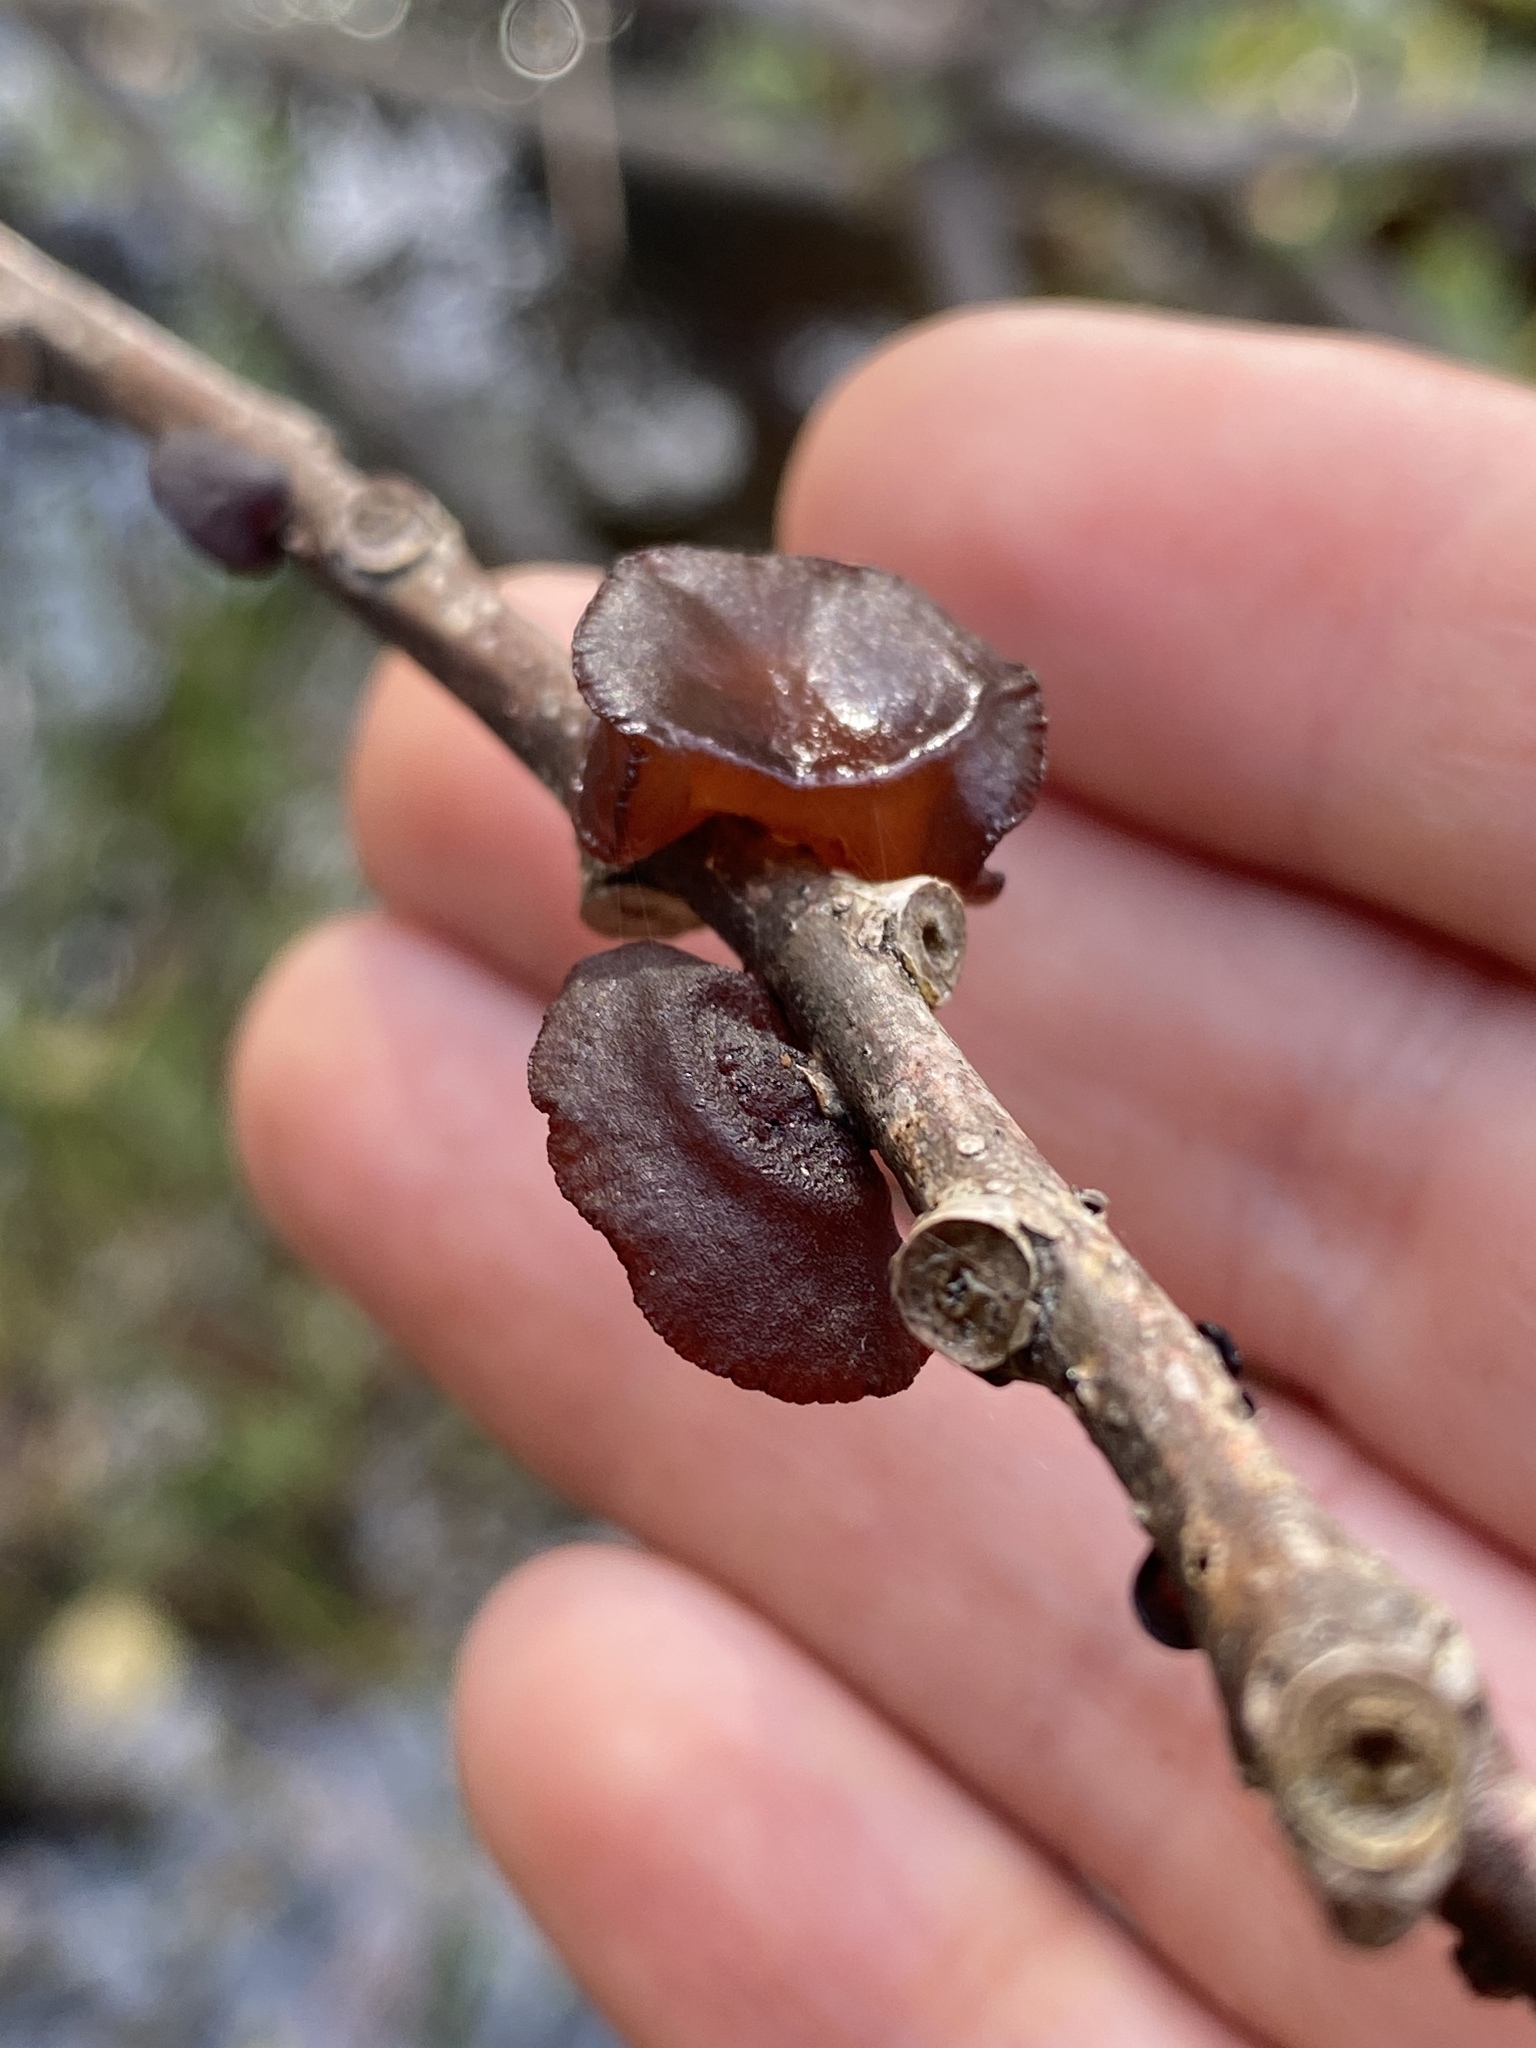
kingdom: Fungi
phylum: Basidiomycota
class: Agaricomycetes
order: Auriculariales
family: Auriculariaceae
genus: Exidia
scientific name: Exidia
